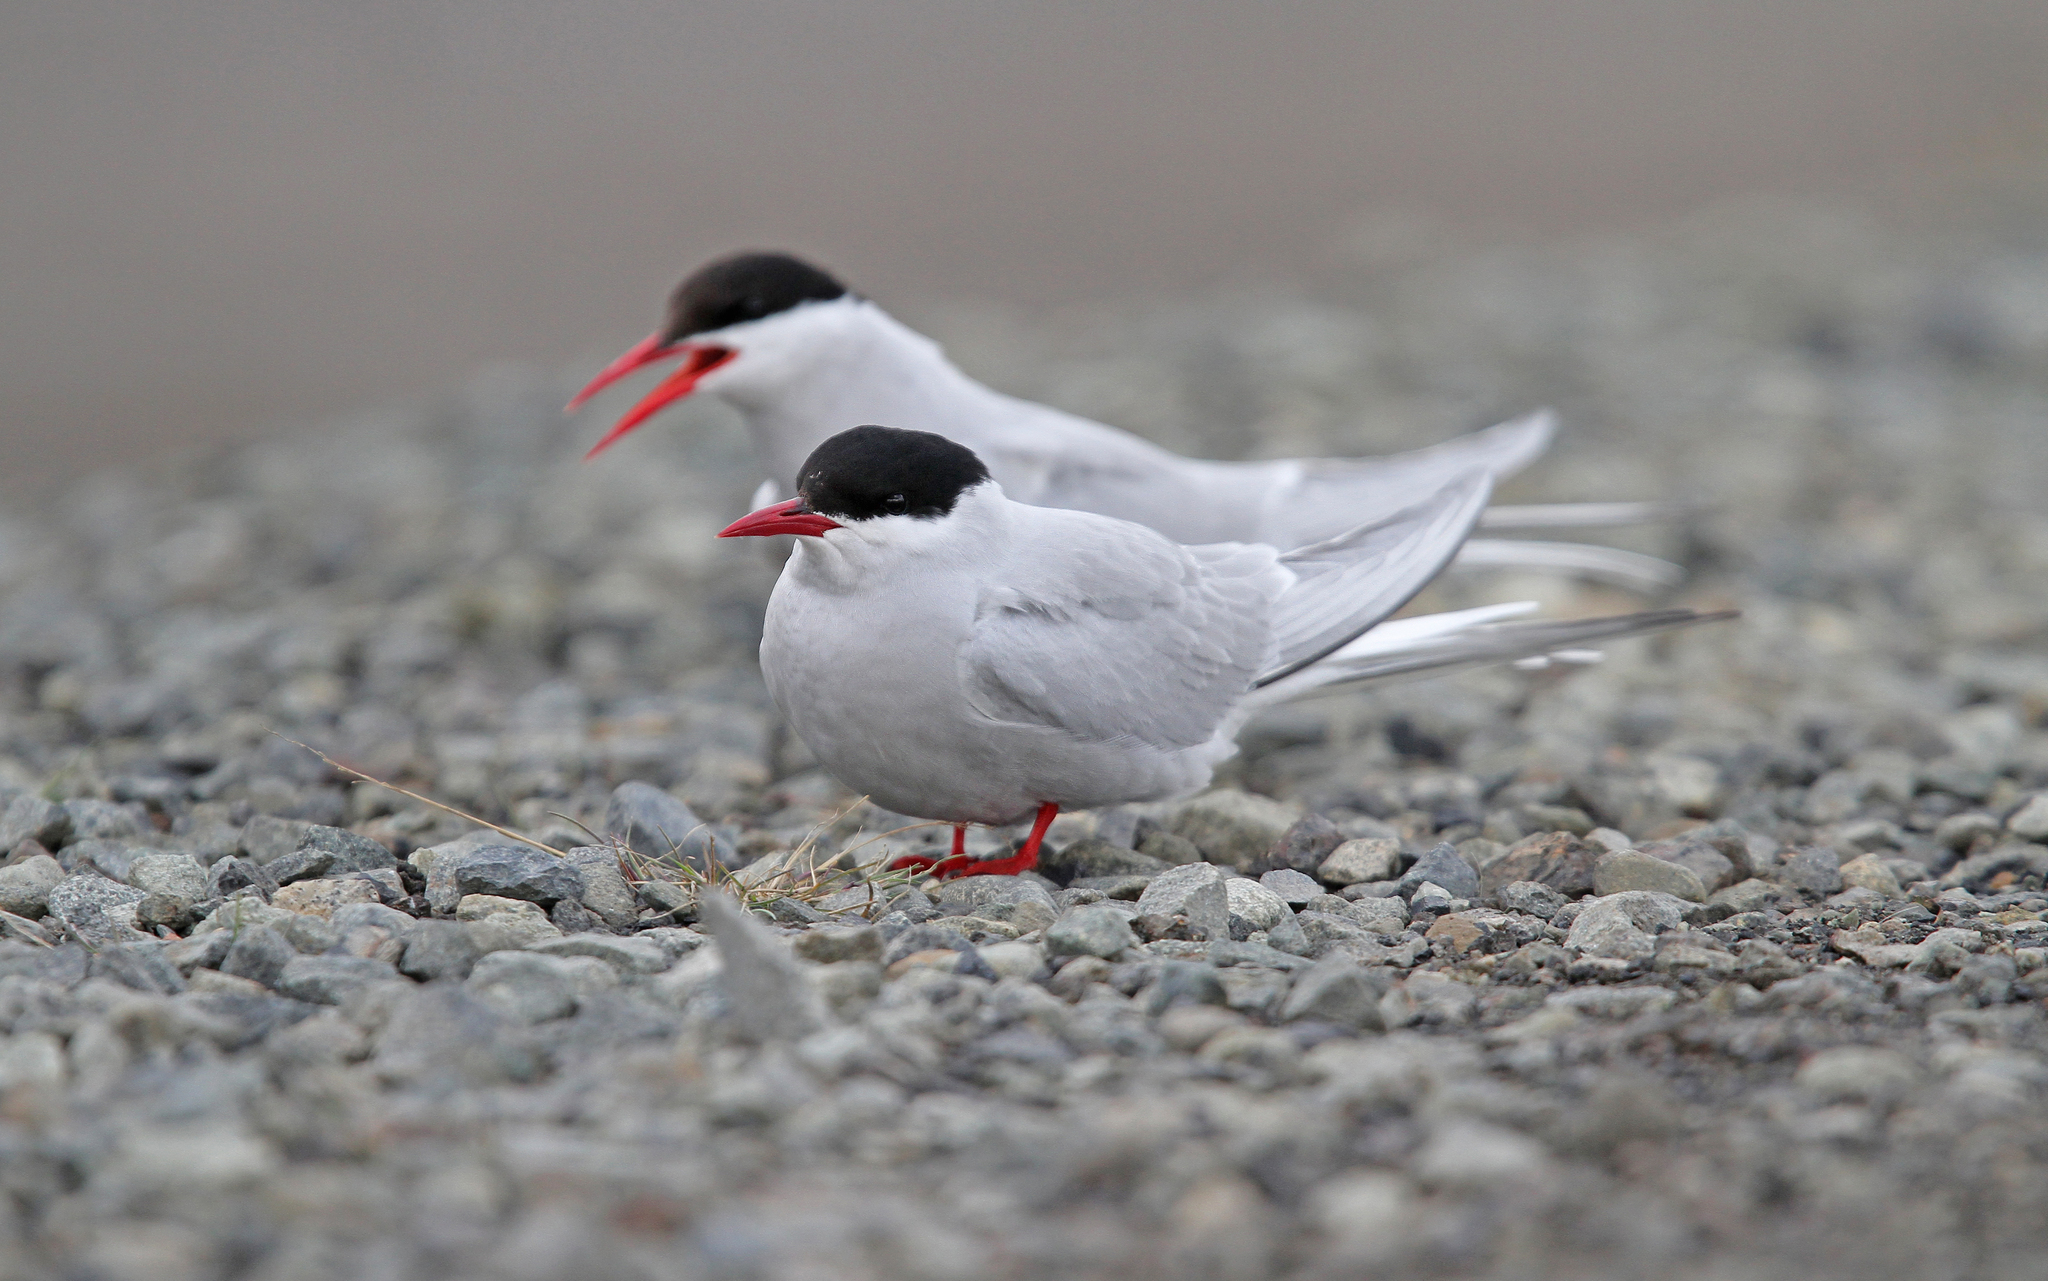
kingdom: Animalia
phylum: Chordata
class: Aves
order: Charadriiformes
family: Laridae
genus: Sterna
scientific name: Sterna paradisaea
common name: Arctic tern
